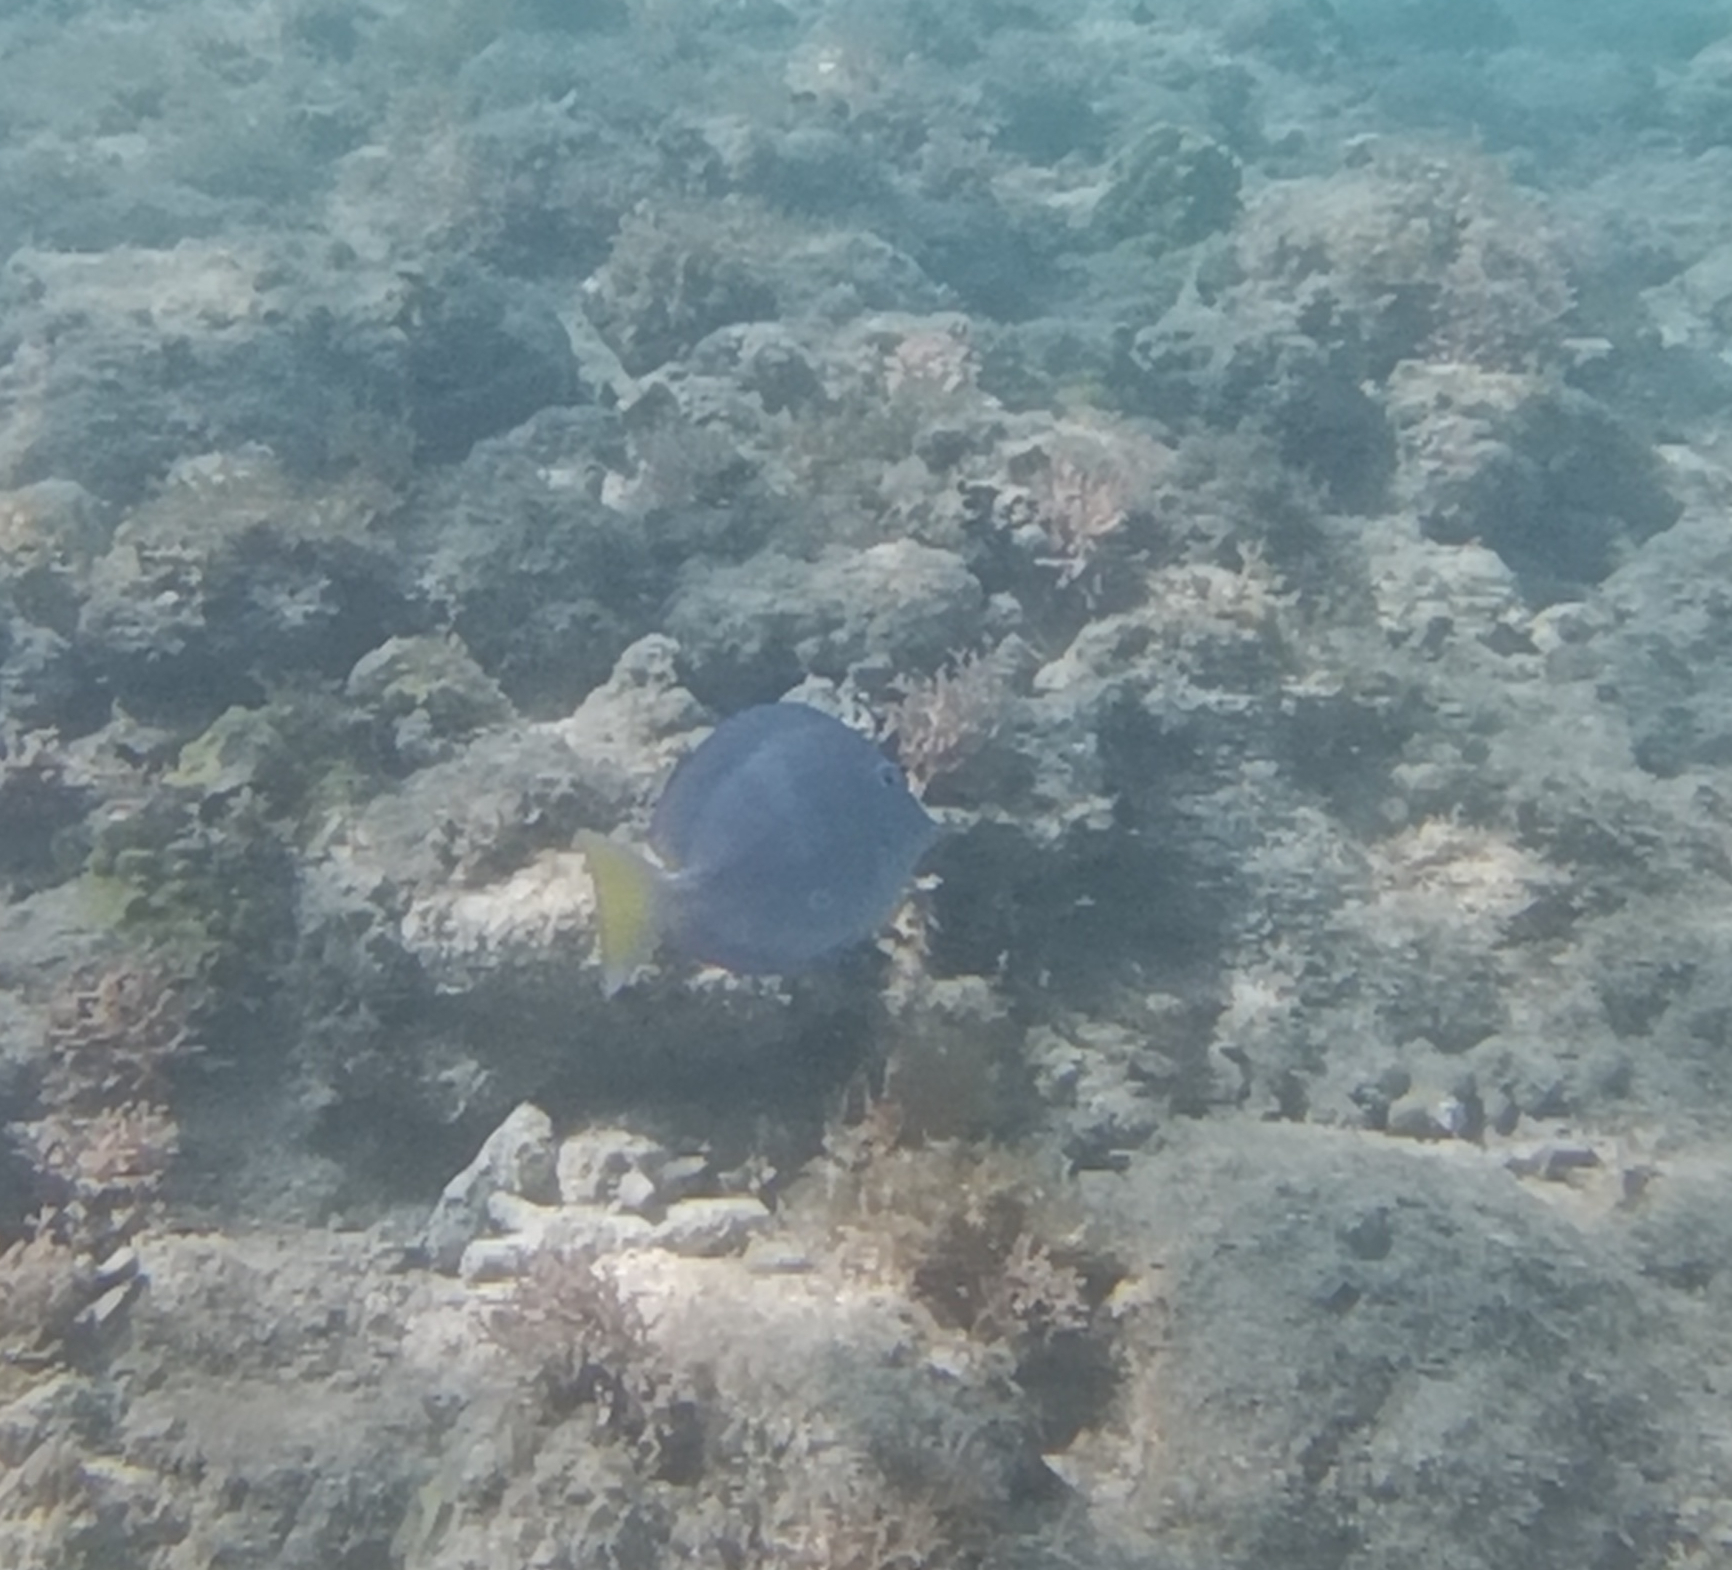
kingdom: Animalia
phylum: Chordata
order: Perciformes
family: Acanthuridae
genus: Acanthurus
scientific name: Acanthurus coeruleus
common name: Blue tang
